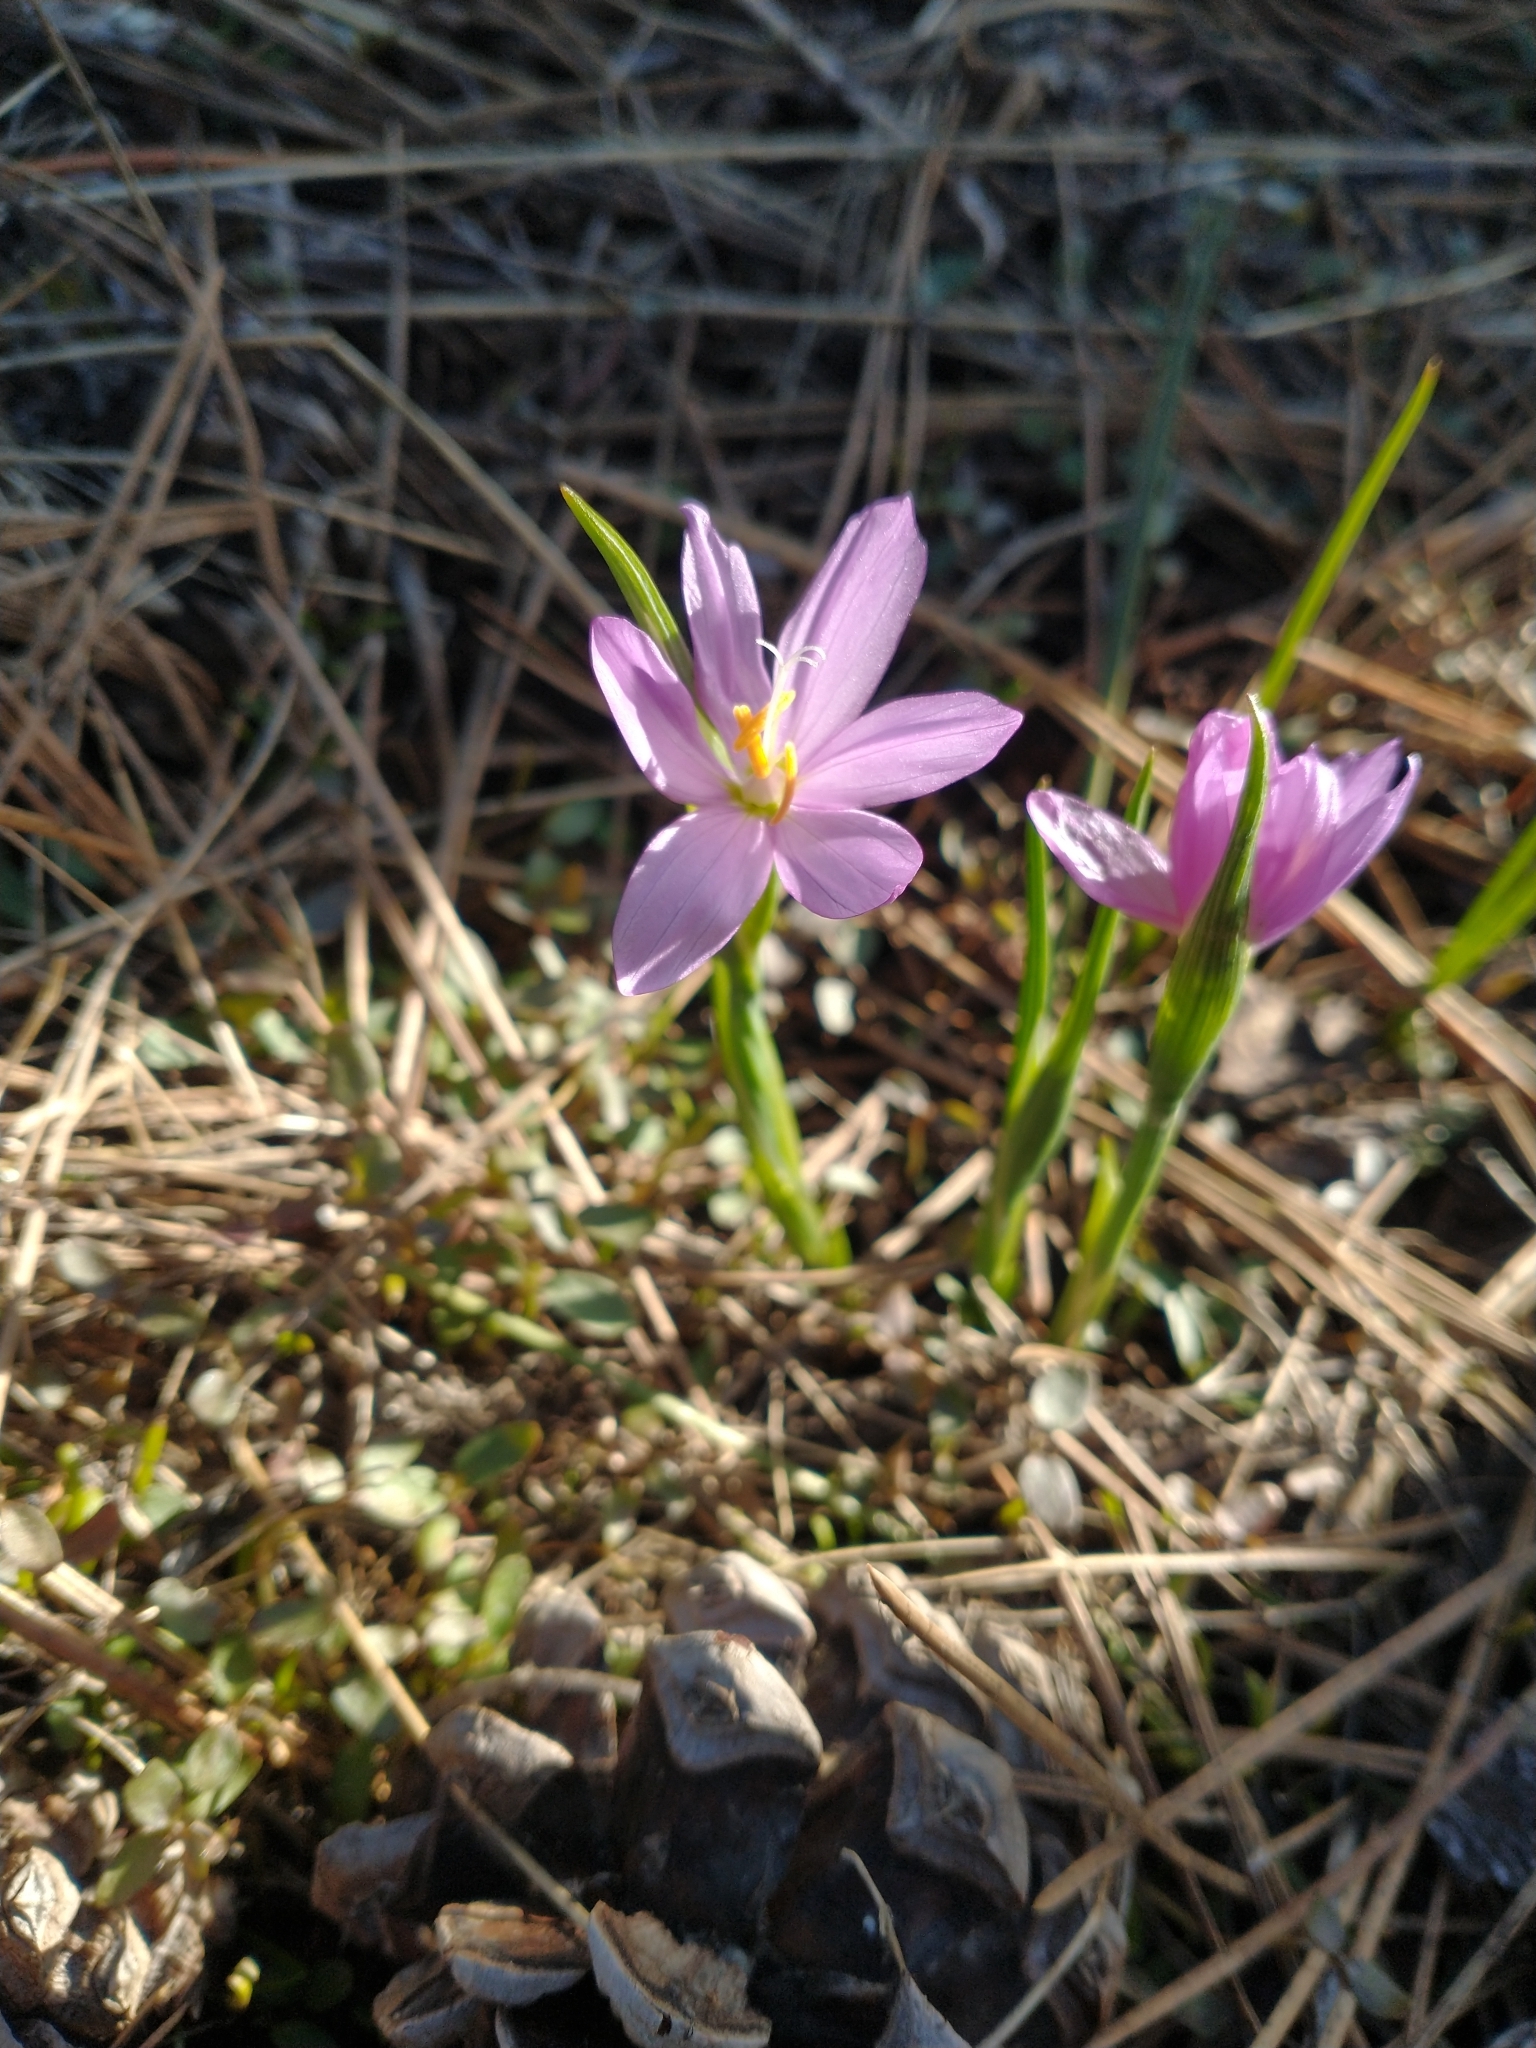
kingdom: Plantae
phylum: Tracheophyta
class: Liliopsida
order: Asparagales
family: Iridaceae
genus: Olsynium
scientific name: Olsynium douglasii
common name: Douglas' grasswidow
